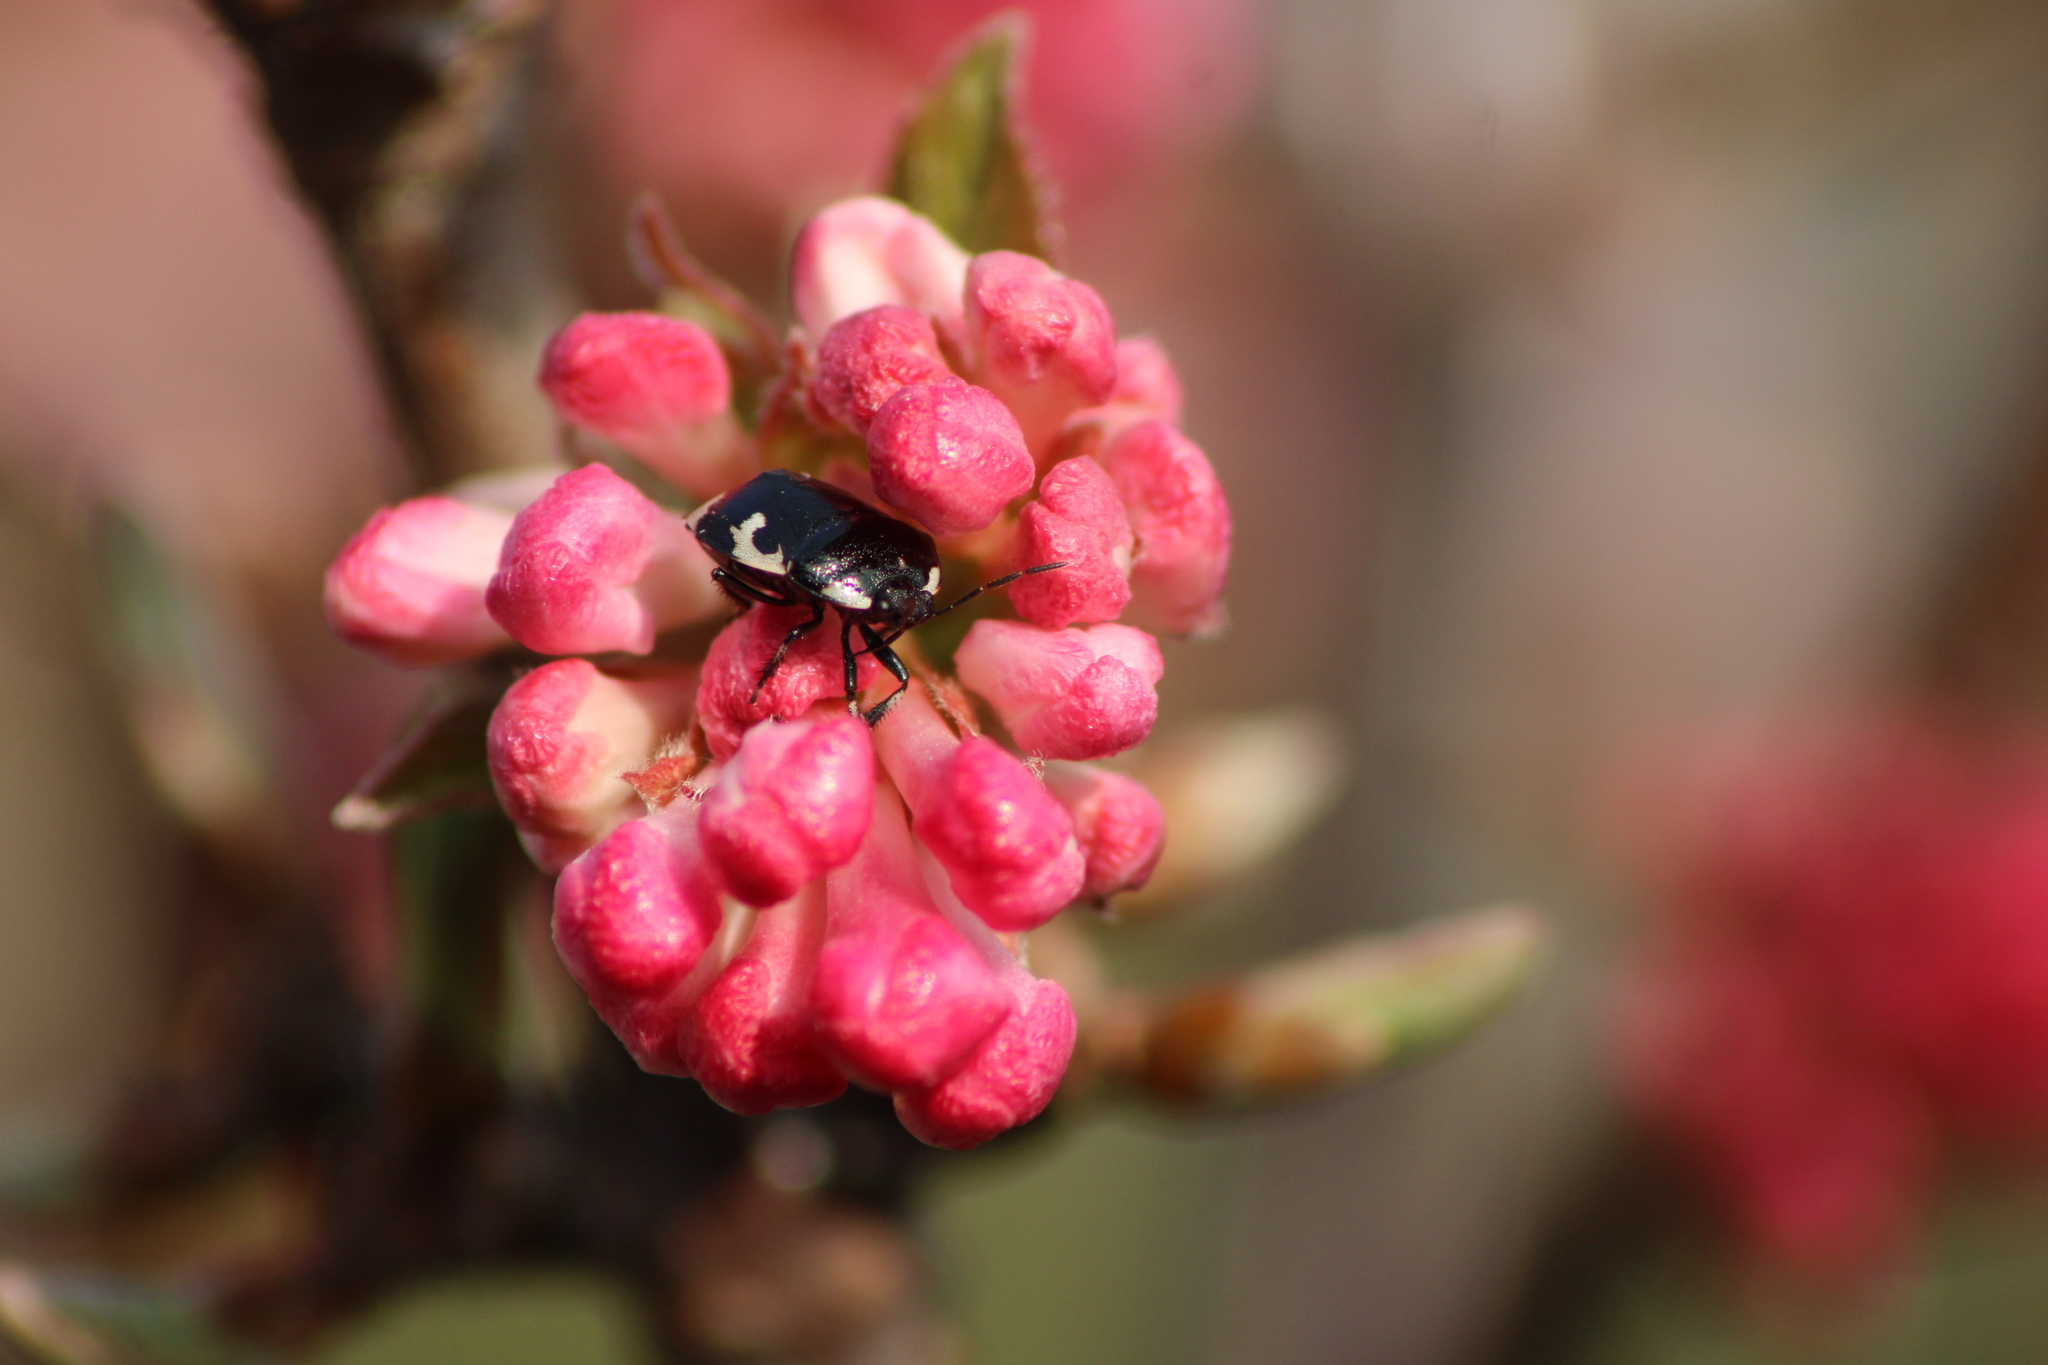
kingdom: Animalia
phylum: Arthropoda
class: Insecta
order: Hemiptera
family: Cydnidae
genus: Tritomegas
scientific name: Tritomegas bicolor
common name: Pied shieldbug
